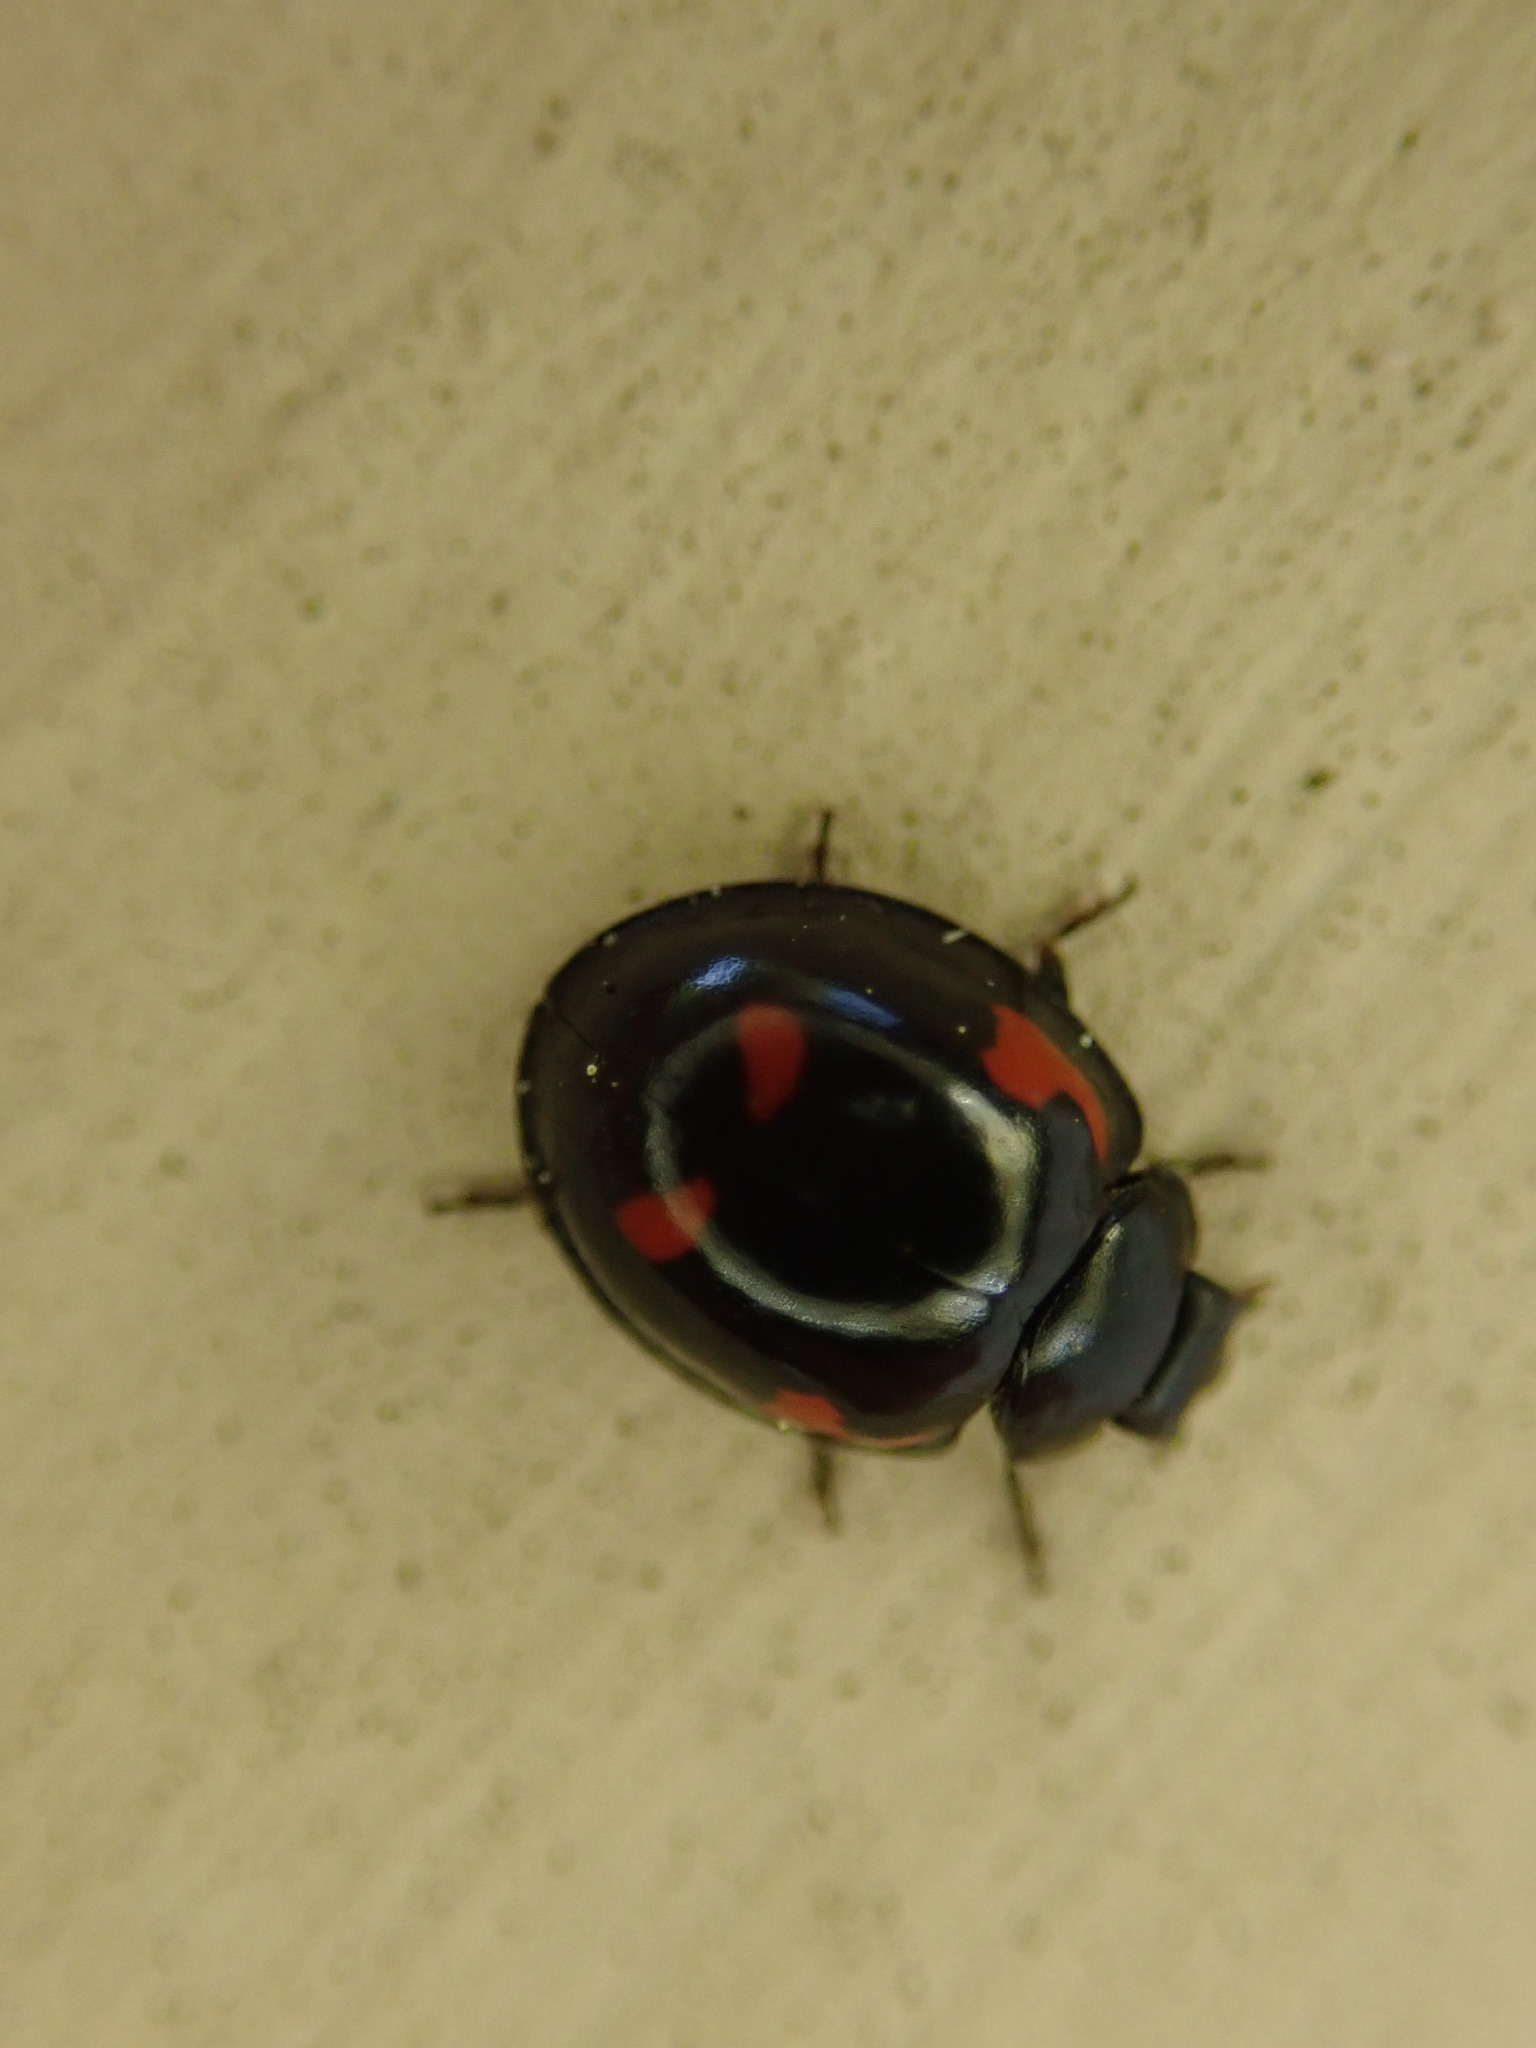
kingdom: Animalia
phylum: Arthropoda
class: Insecta
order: Coleoptera
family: Coccinellidae
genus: Brumus
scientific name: Brumus quadripustulatus
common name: Ladybird beetle
